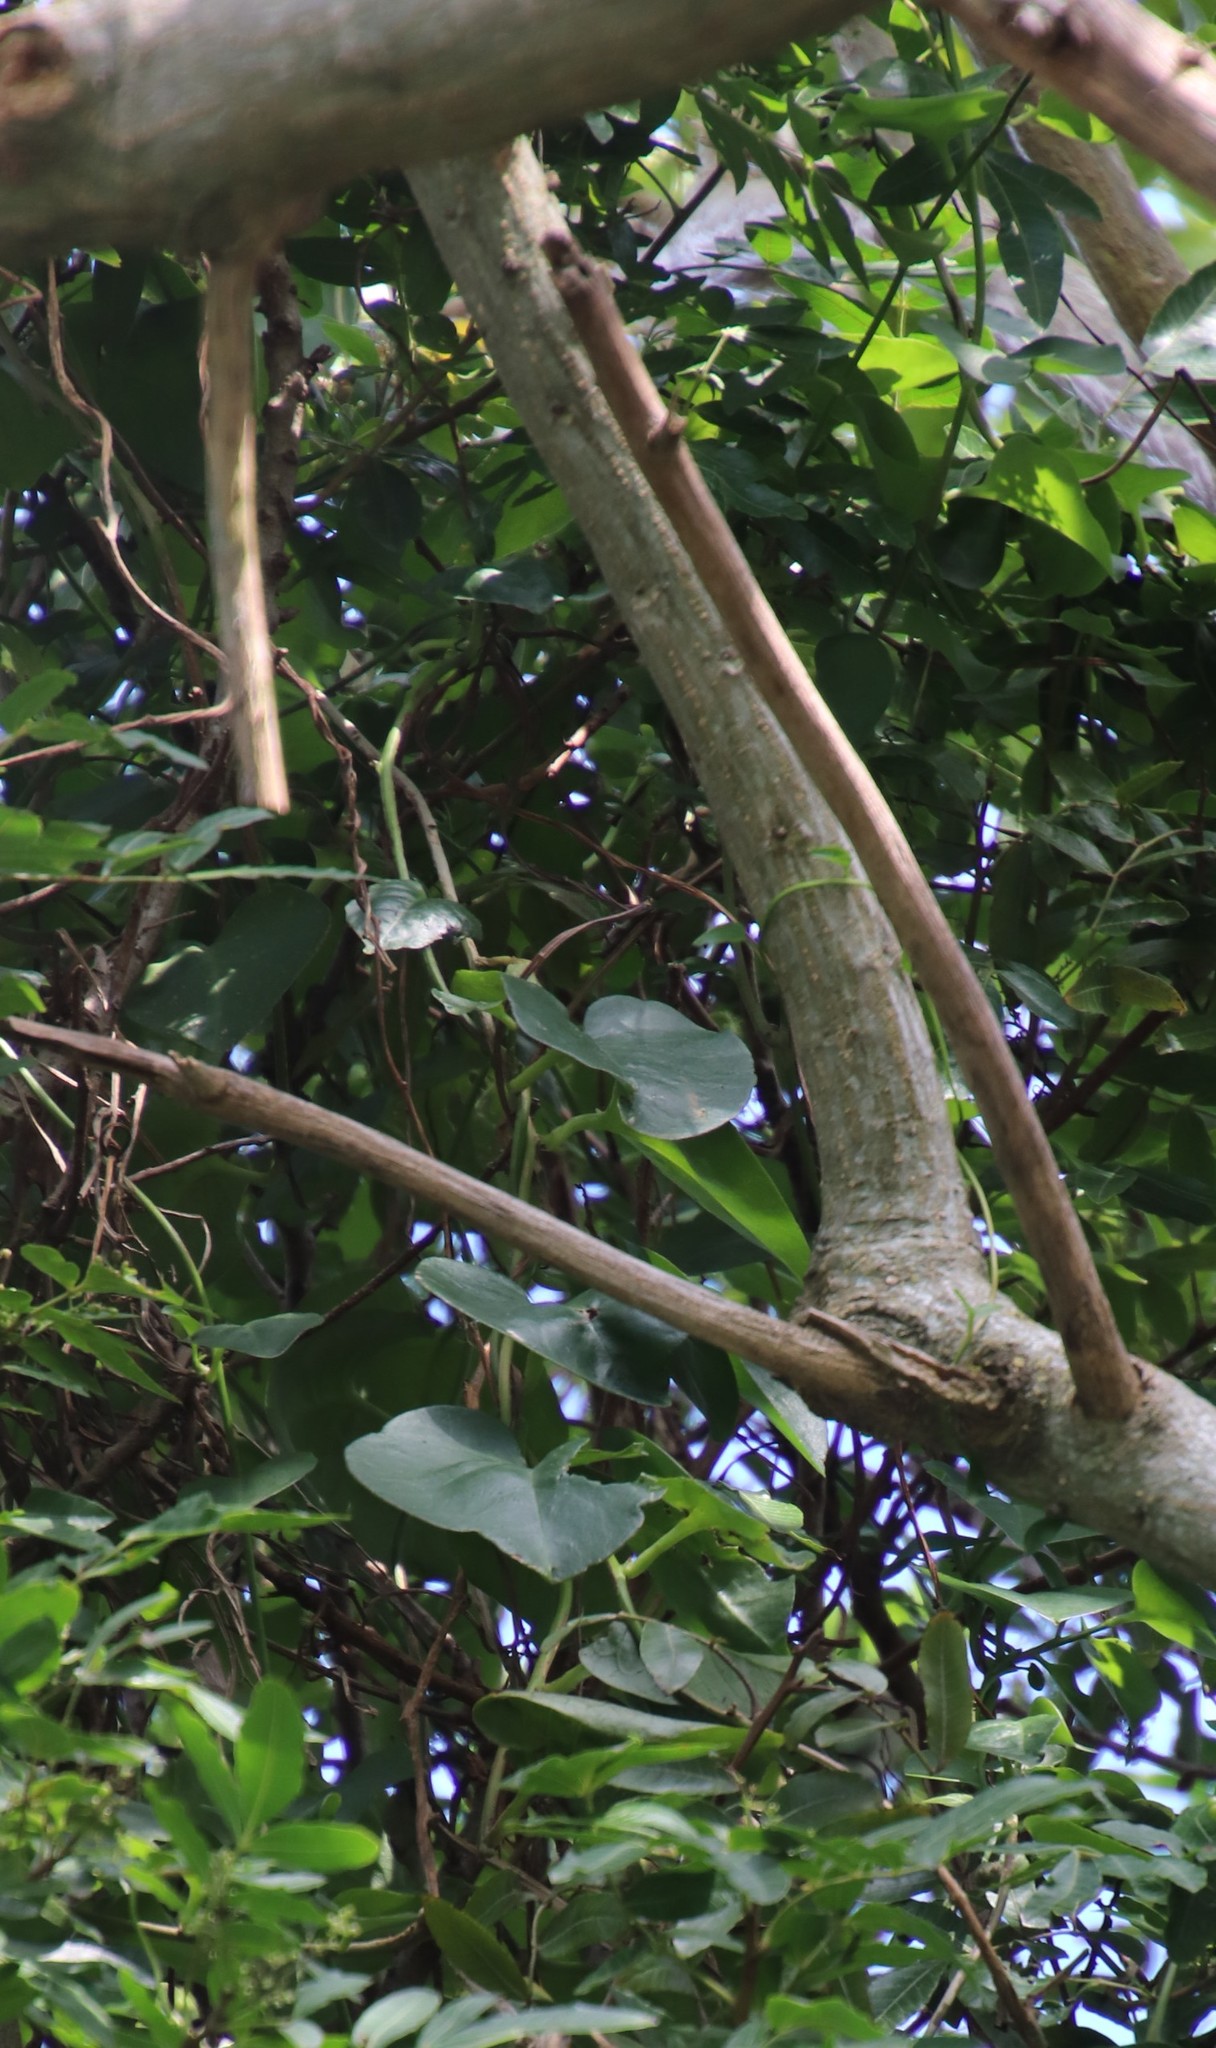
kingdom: Plantae
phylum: Tracheophyta
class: Magnoliopsida
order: Caryophyllales
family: Basellaceae
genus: Anredera
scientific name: Anredera cordifolia
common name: Heartleaf madeiravine
